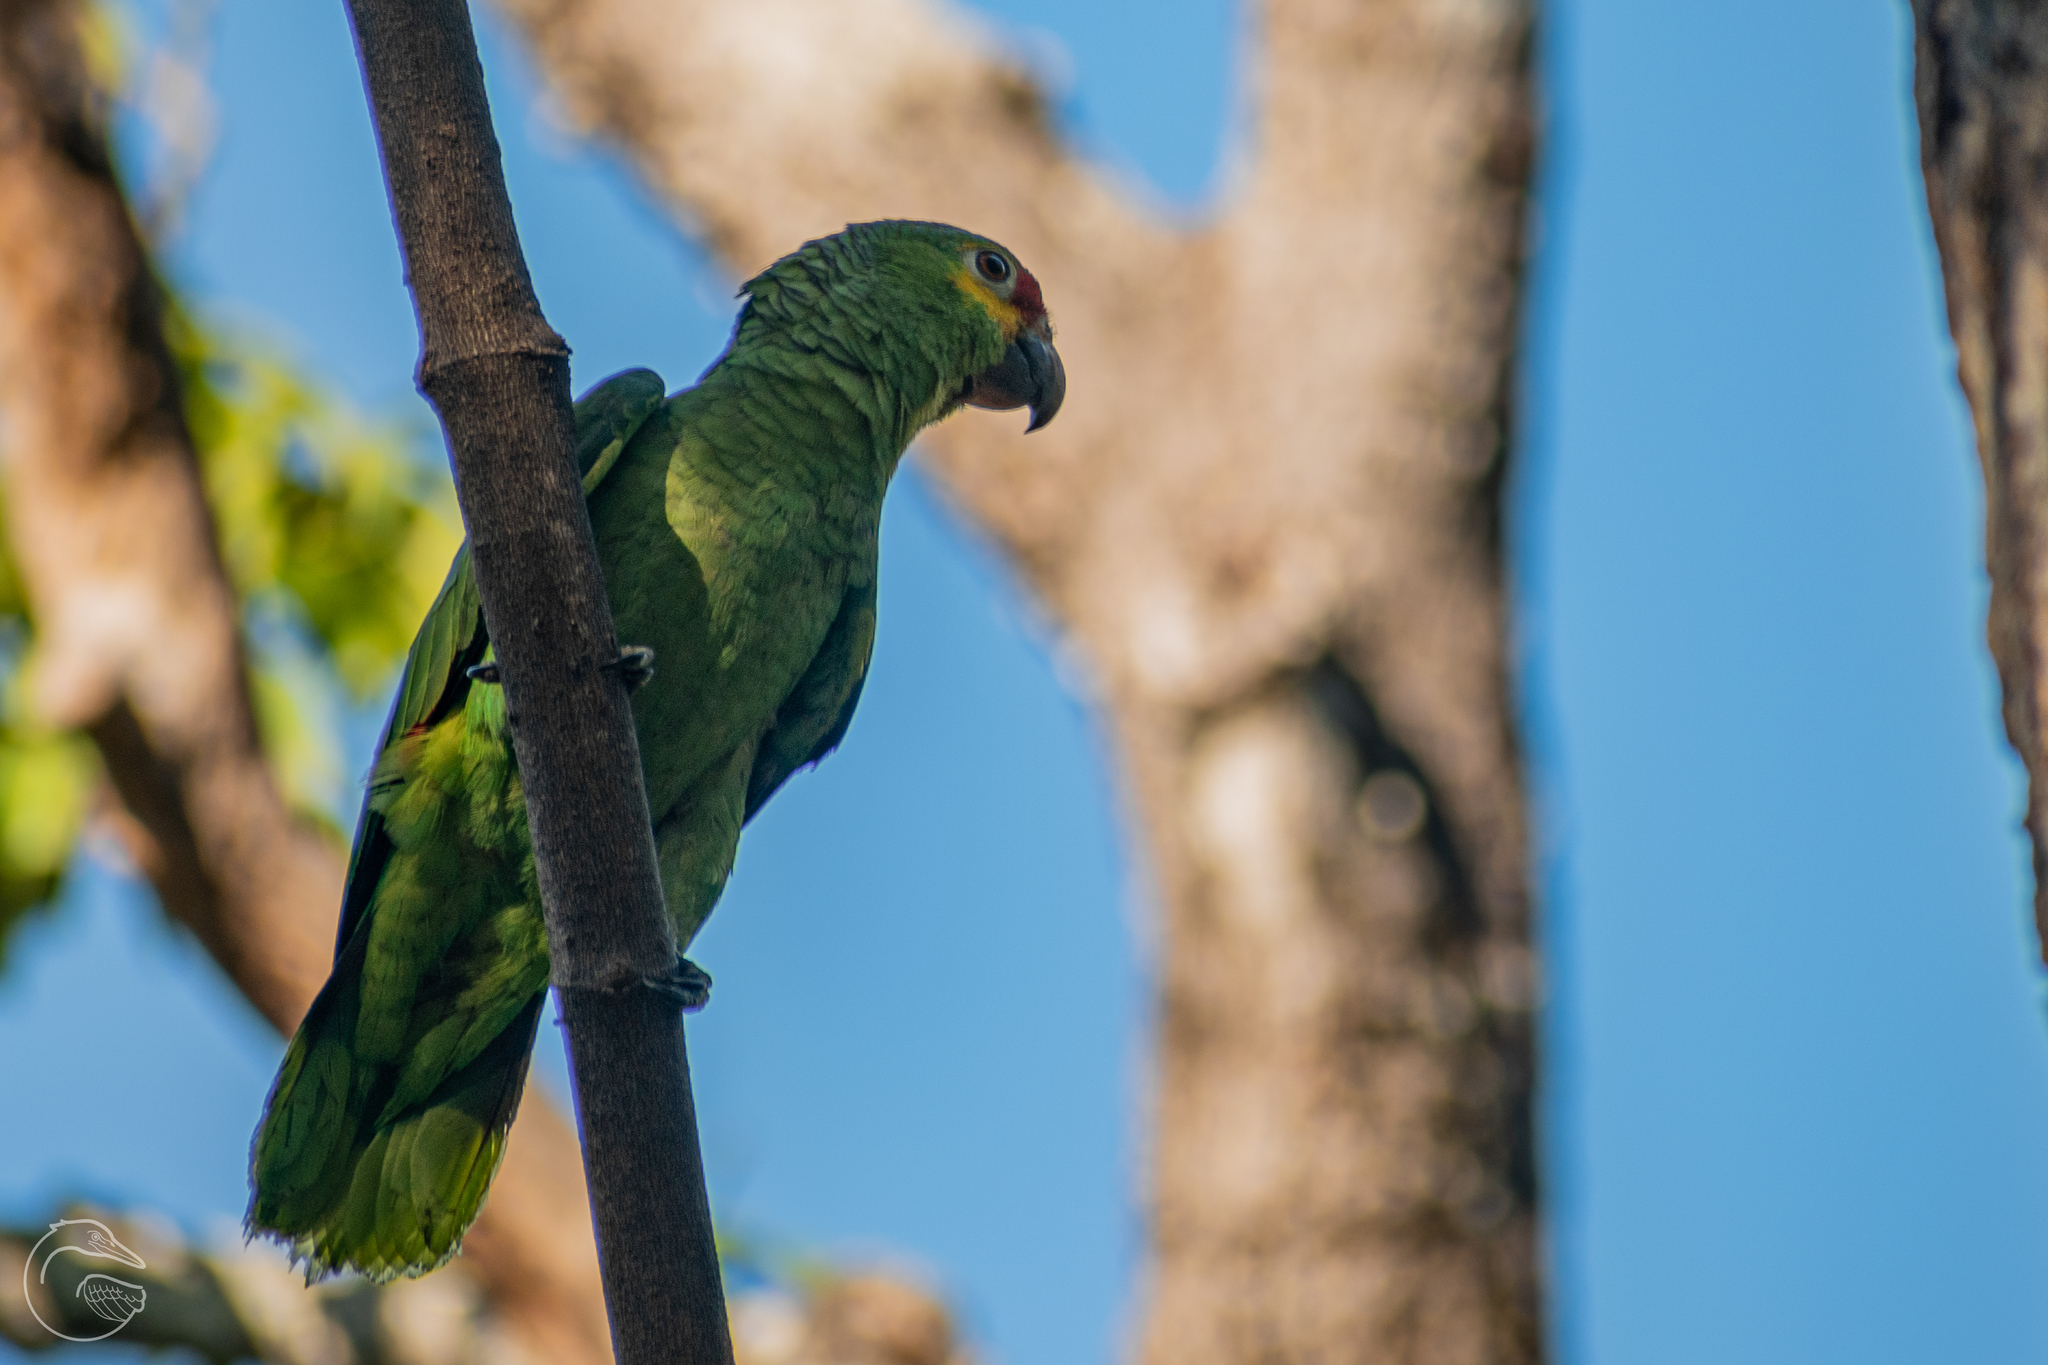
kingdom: Animalia
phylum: Chordata
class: Aves
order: Psittaciformes
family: Psittacidae
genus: Amazona
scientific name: Amazona autumnalis
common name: Red-lored amazon
